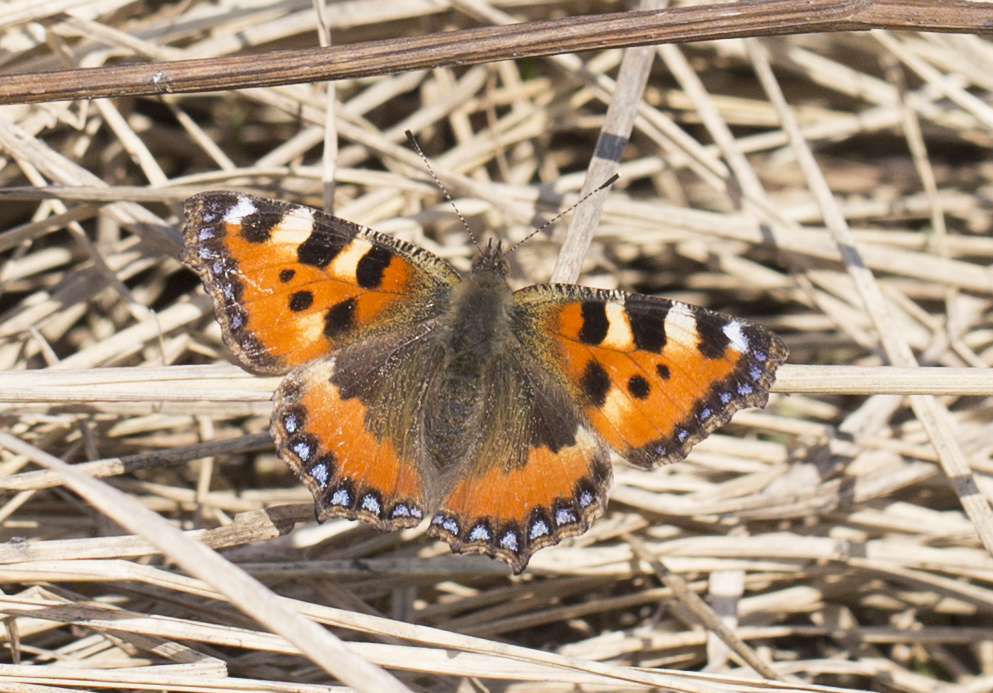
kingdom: Animalia
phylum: Arthropoda
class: Insecta
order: Lepidoptera
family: Nymphalidae
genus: Aglais
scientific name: Aglais urticae
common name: Small tortoiseshell
